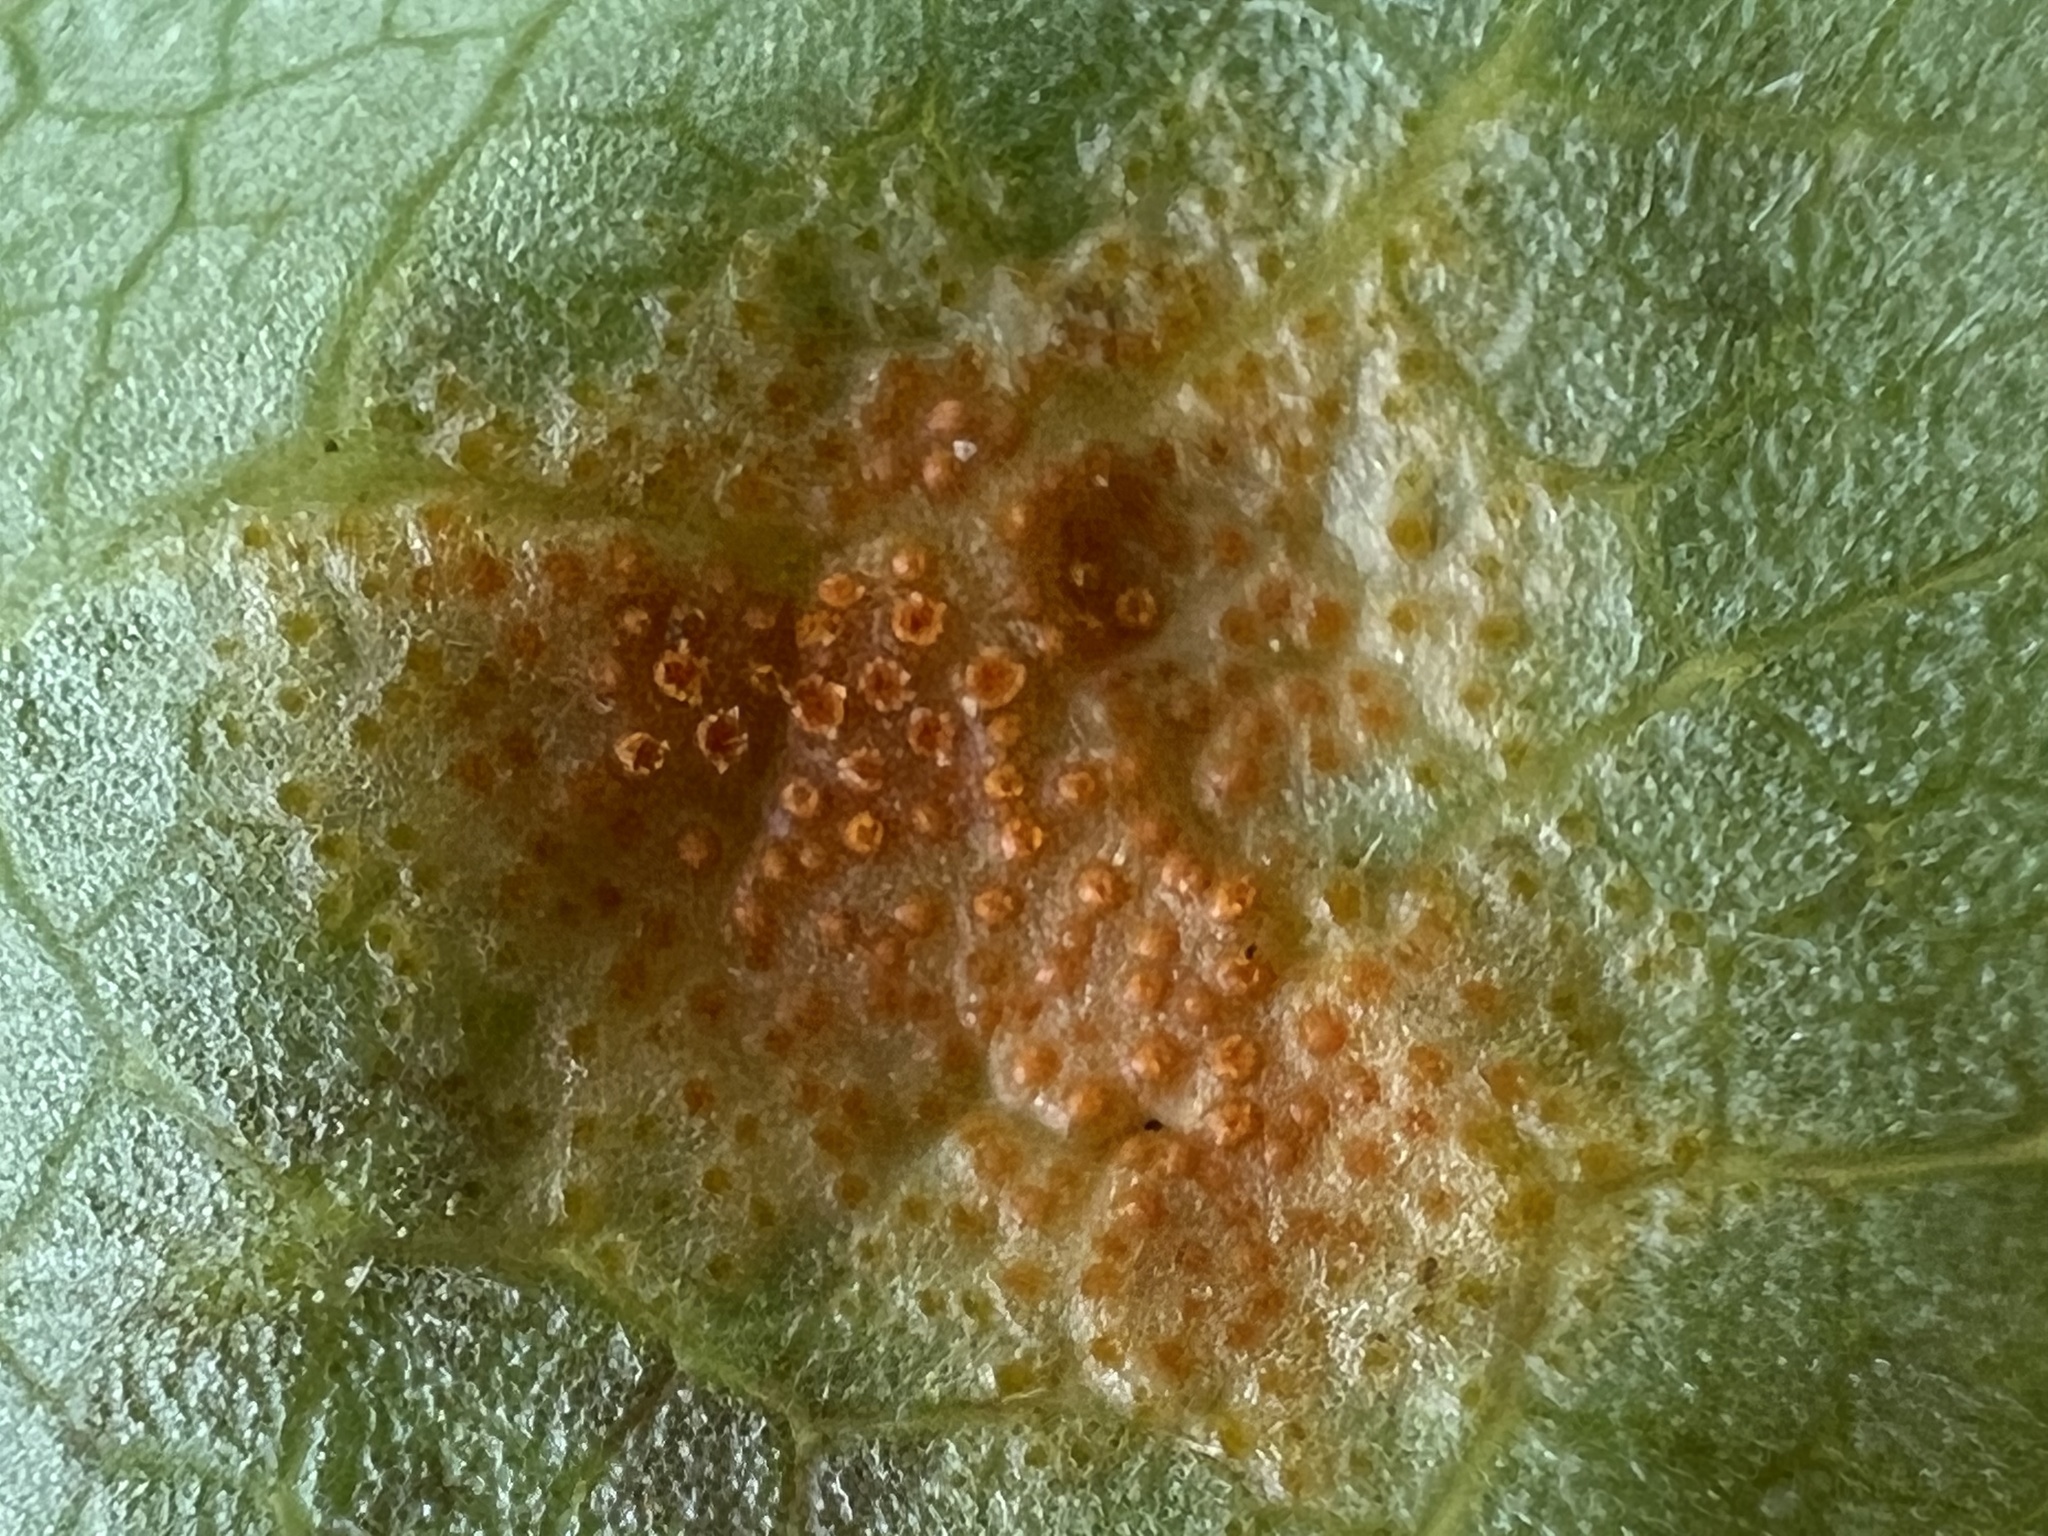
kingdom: Fungi
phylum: Basidiomycota
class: Pucciniomycetes
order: Pucciniales
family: Pucciniaceae
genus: Puccinia
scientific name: Puccinia podophylli
